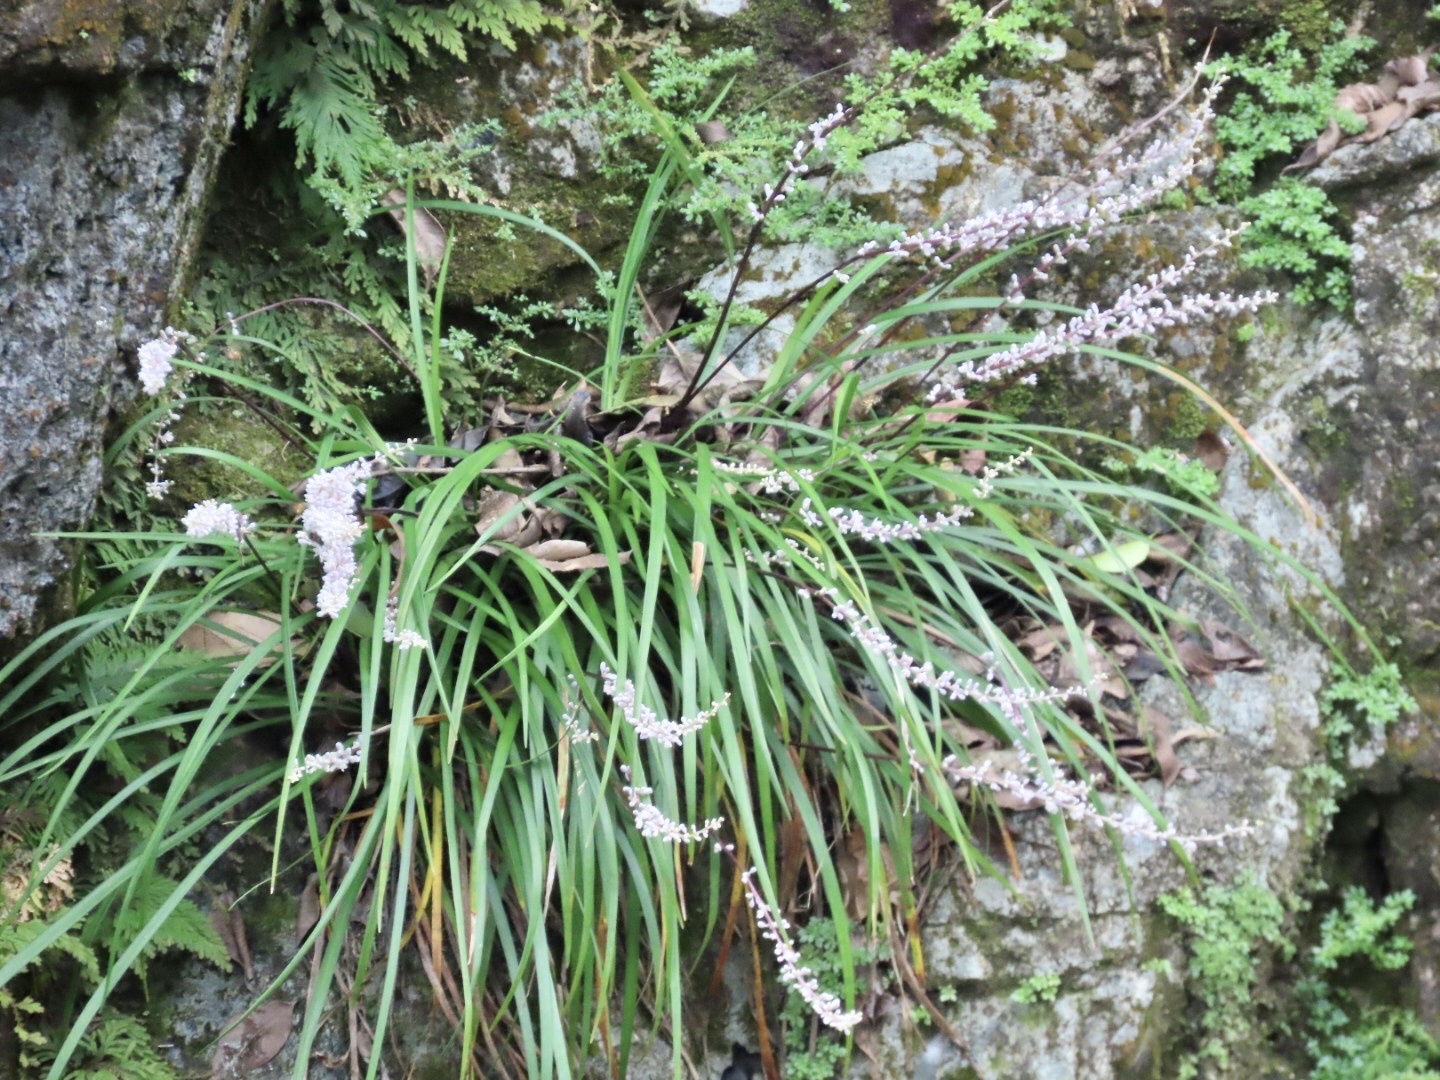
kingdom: Plantae
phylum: Tracheophyta
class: Liliopsida
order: Asparagales
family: Asparagaceae
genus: Liriope
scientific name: Liriope spicata
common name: Creeping liriope
